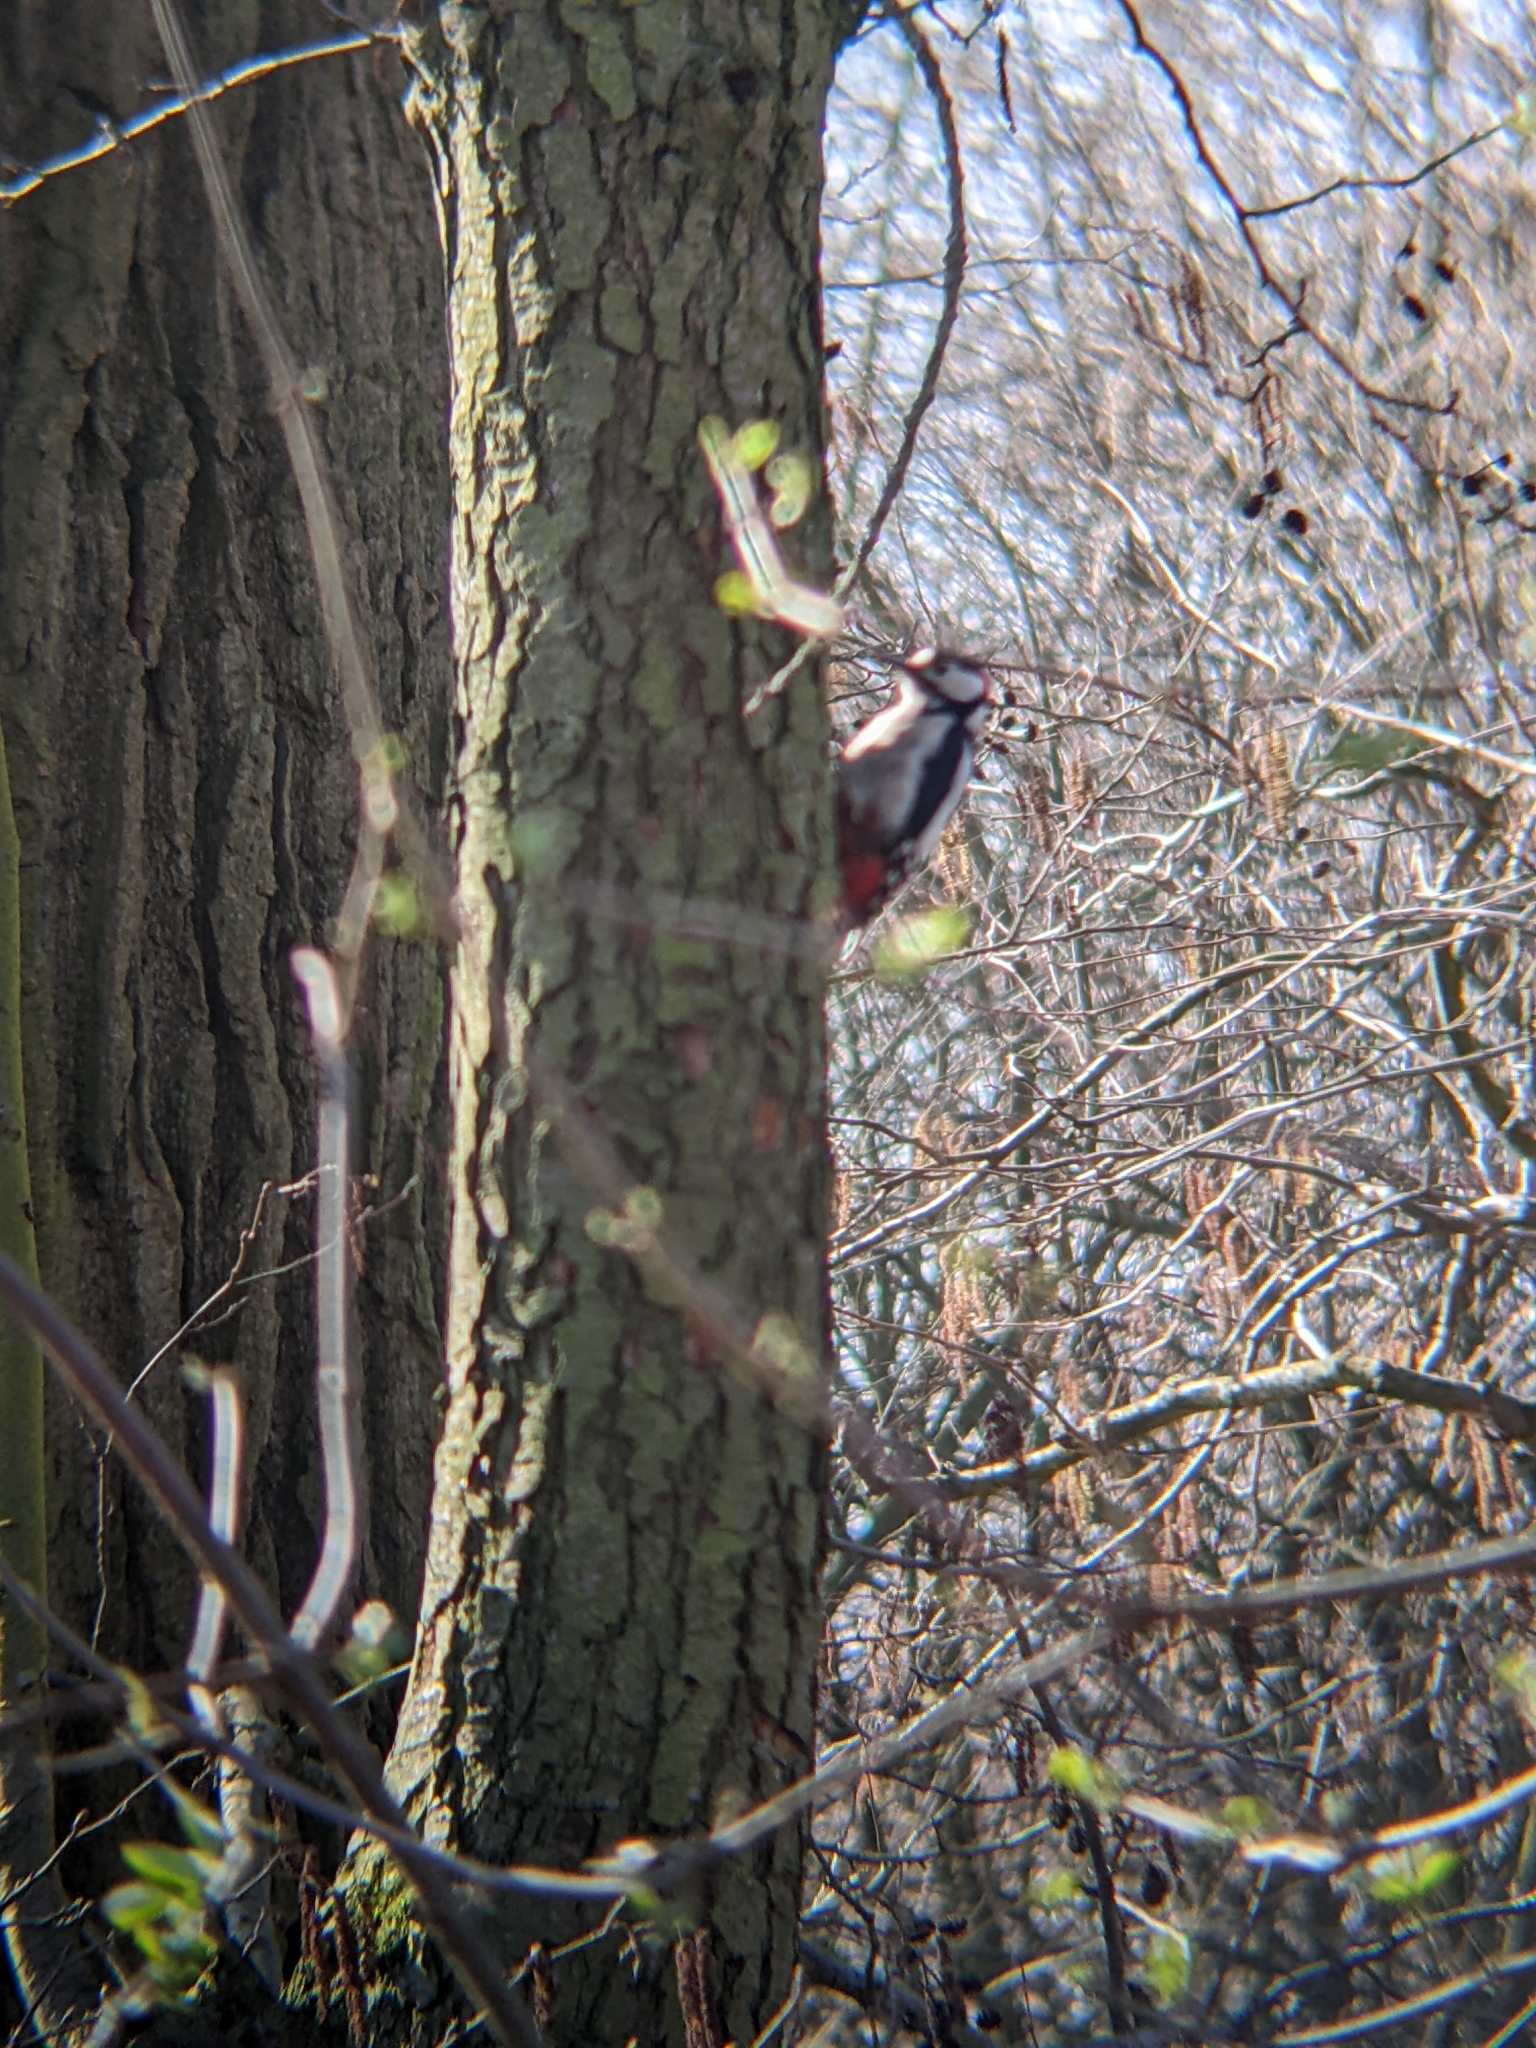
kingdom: Animalia
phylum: Chordata
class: Aves
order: Piciformes
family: Picidae
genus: Dendrocopos
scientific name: Dendrocopos major
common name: Great spotted woodpecker
